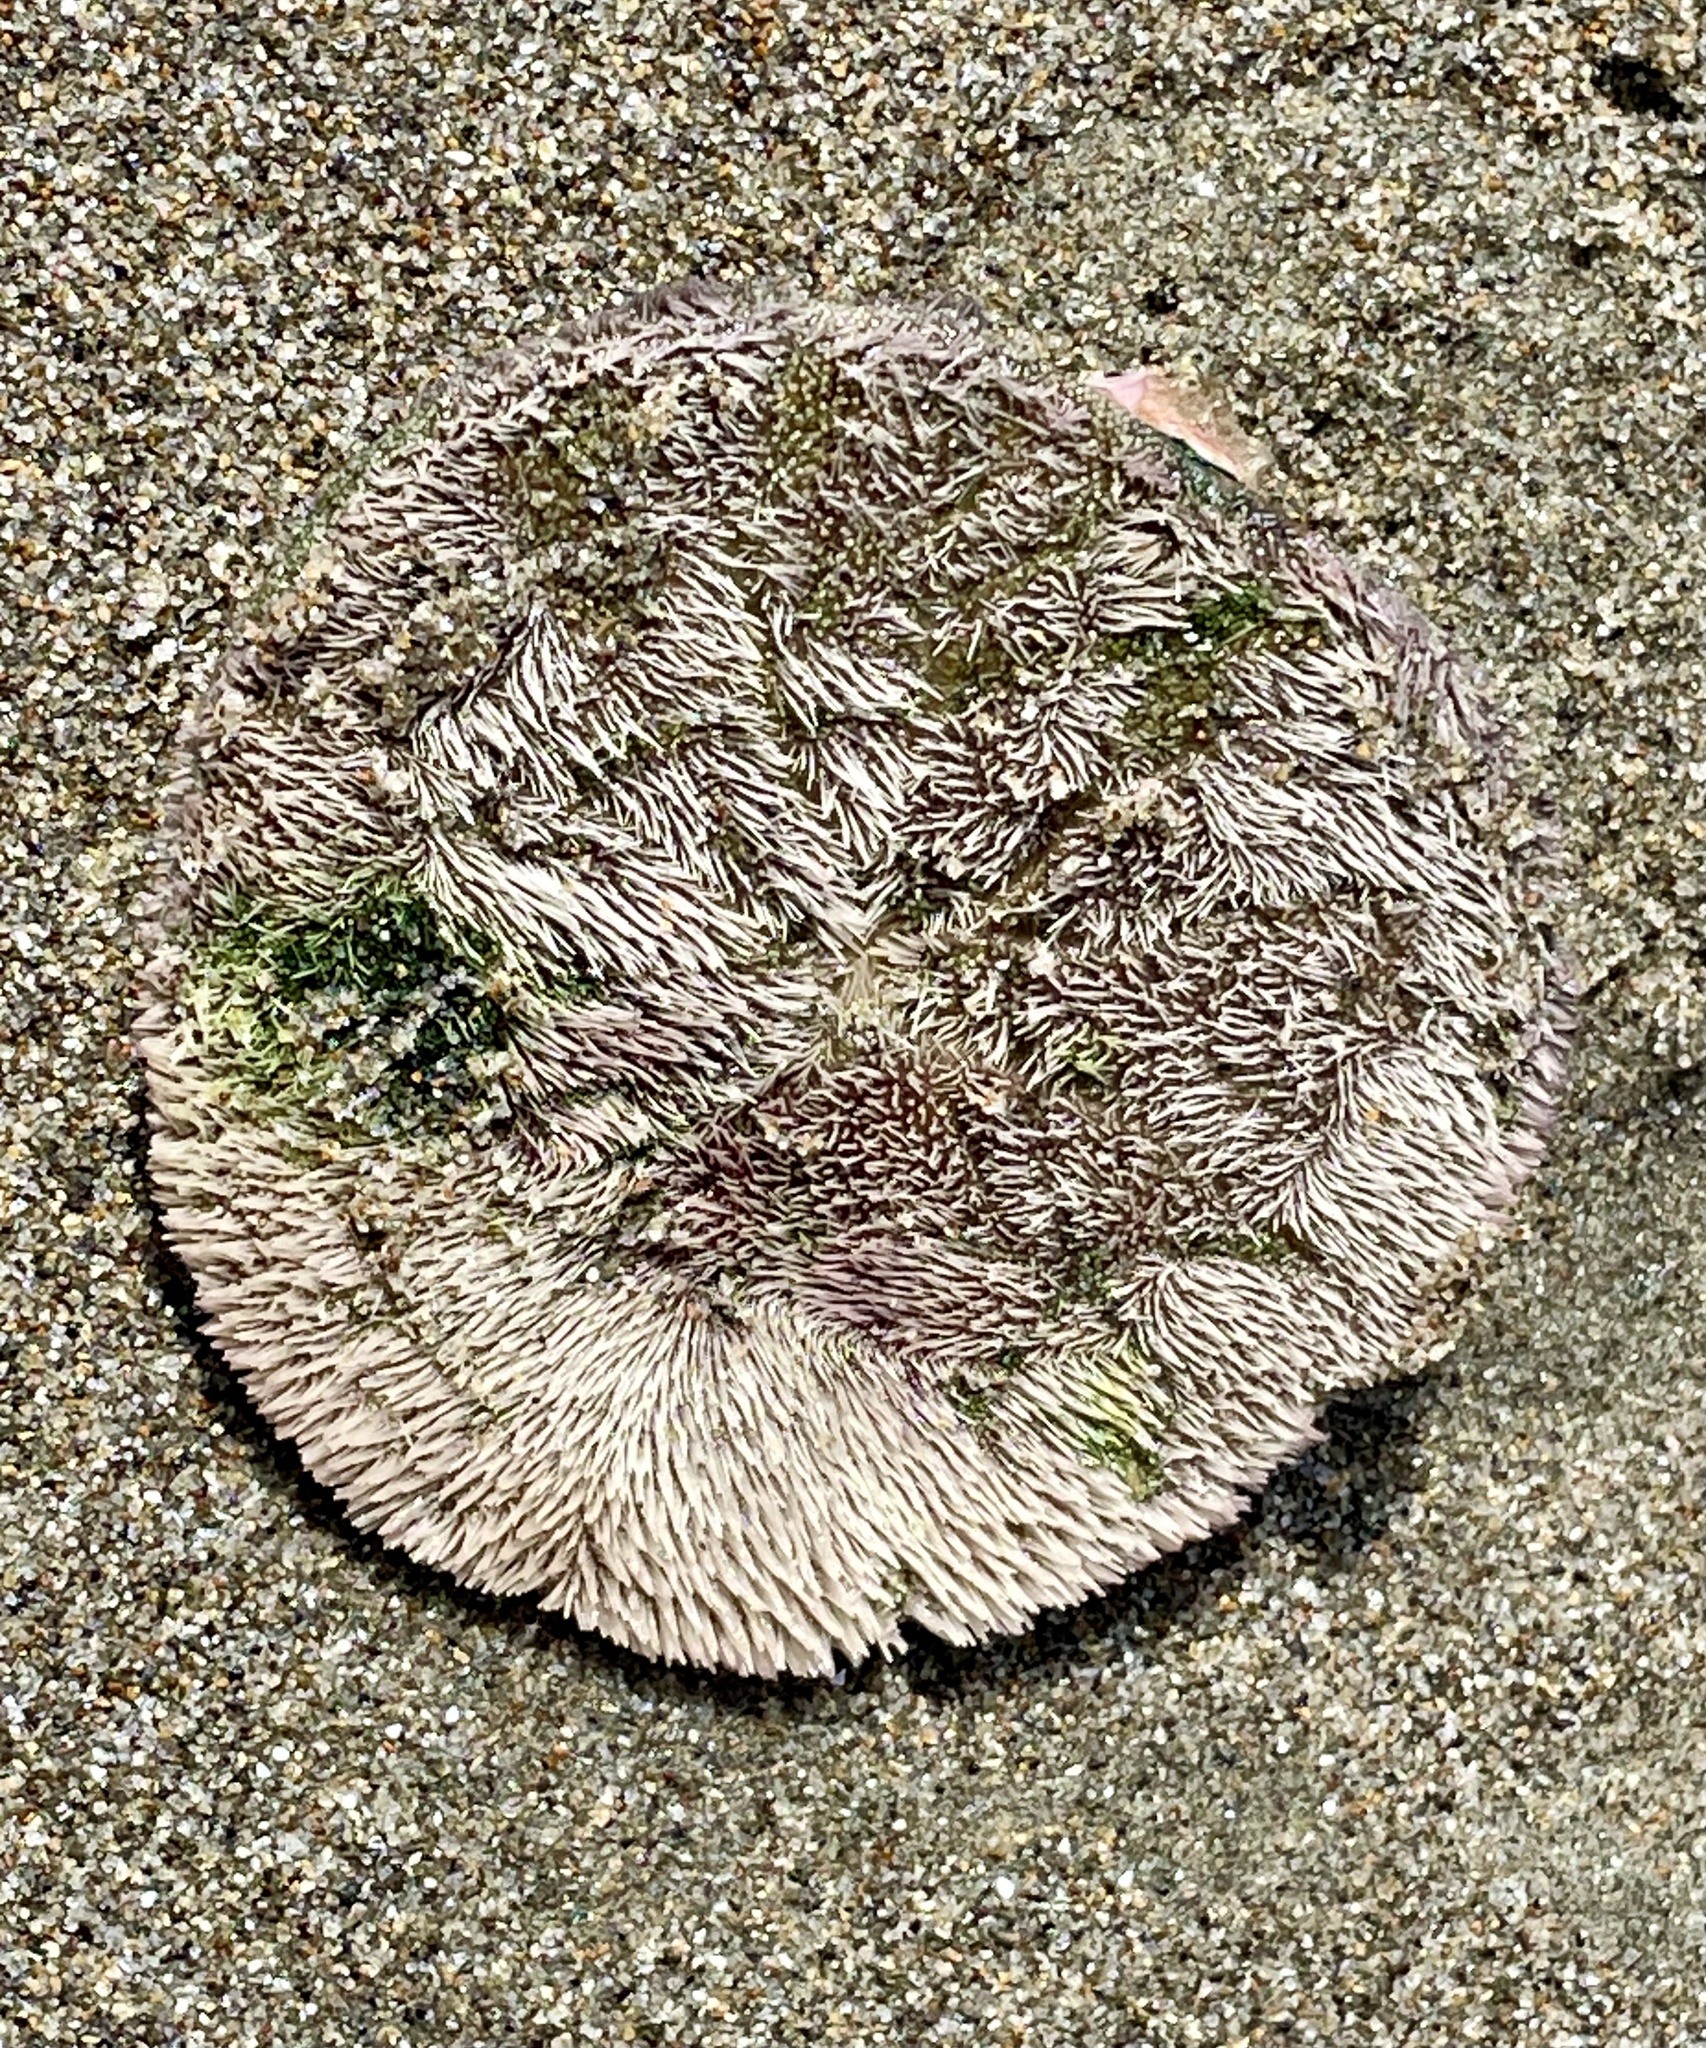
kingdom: Animalia
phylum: Echinodermata
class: Echinoidea
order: Echinolampadacea
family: Dendrasteridae
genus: Dendraster
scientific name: Dendraster excentricus
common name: Eccentric sand dollar sea urchin
